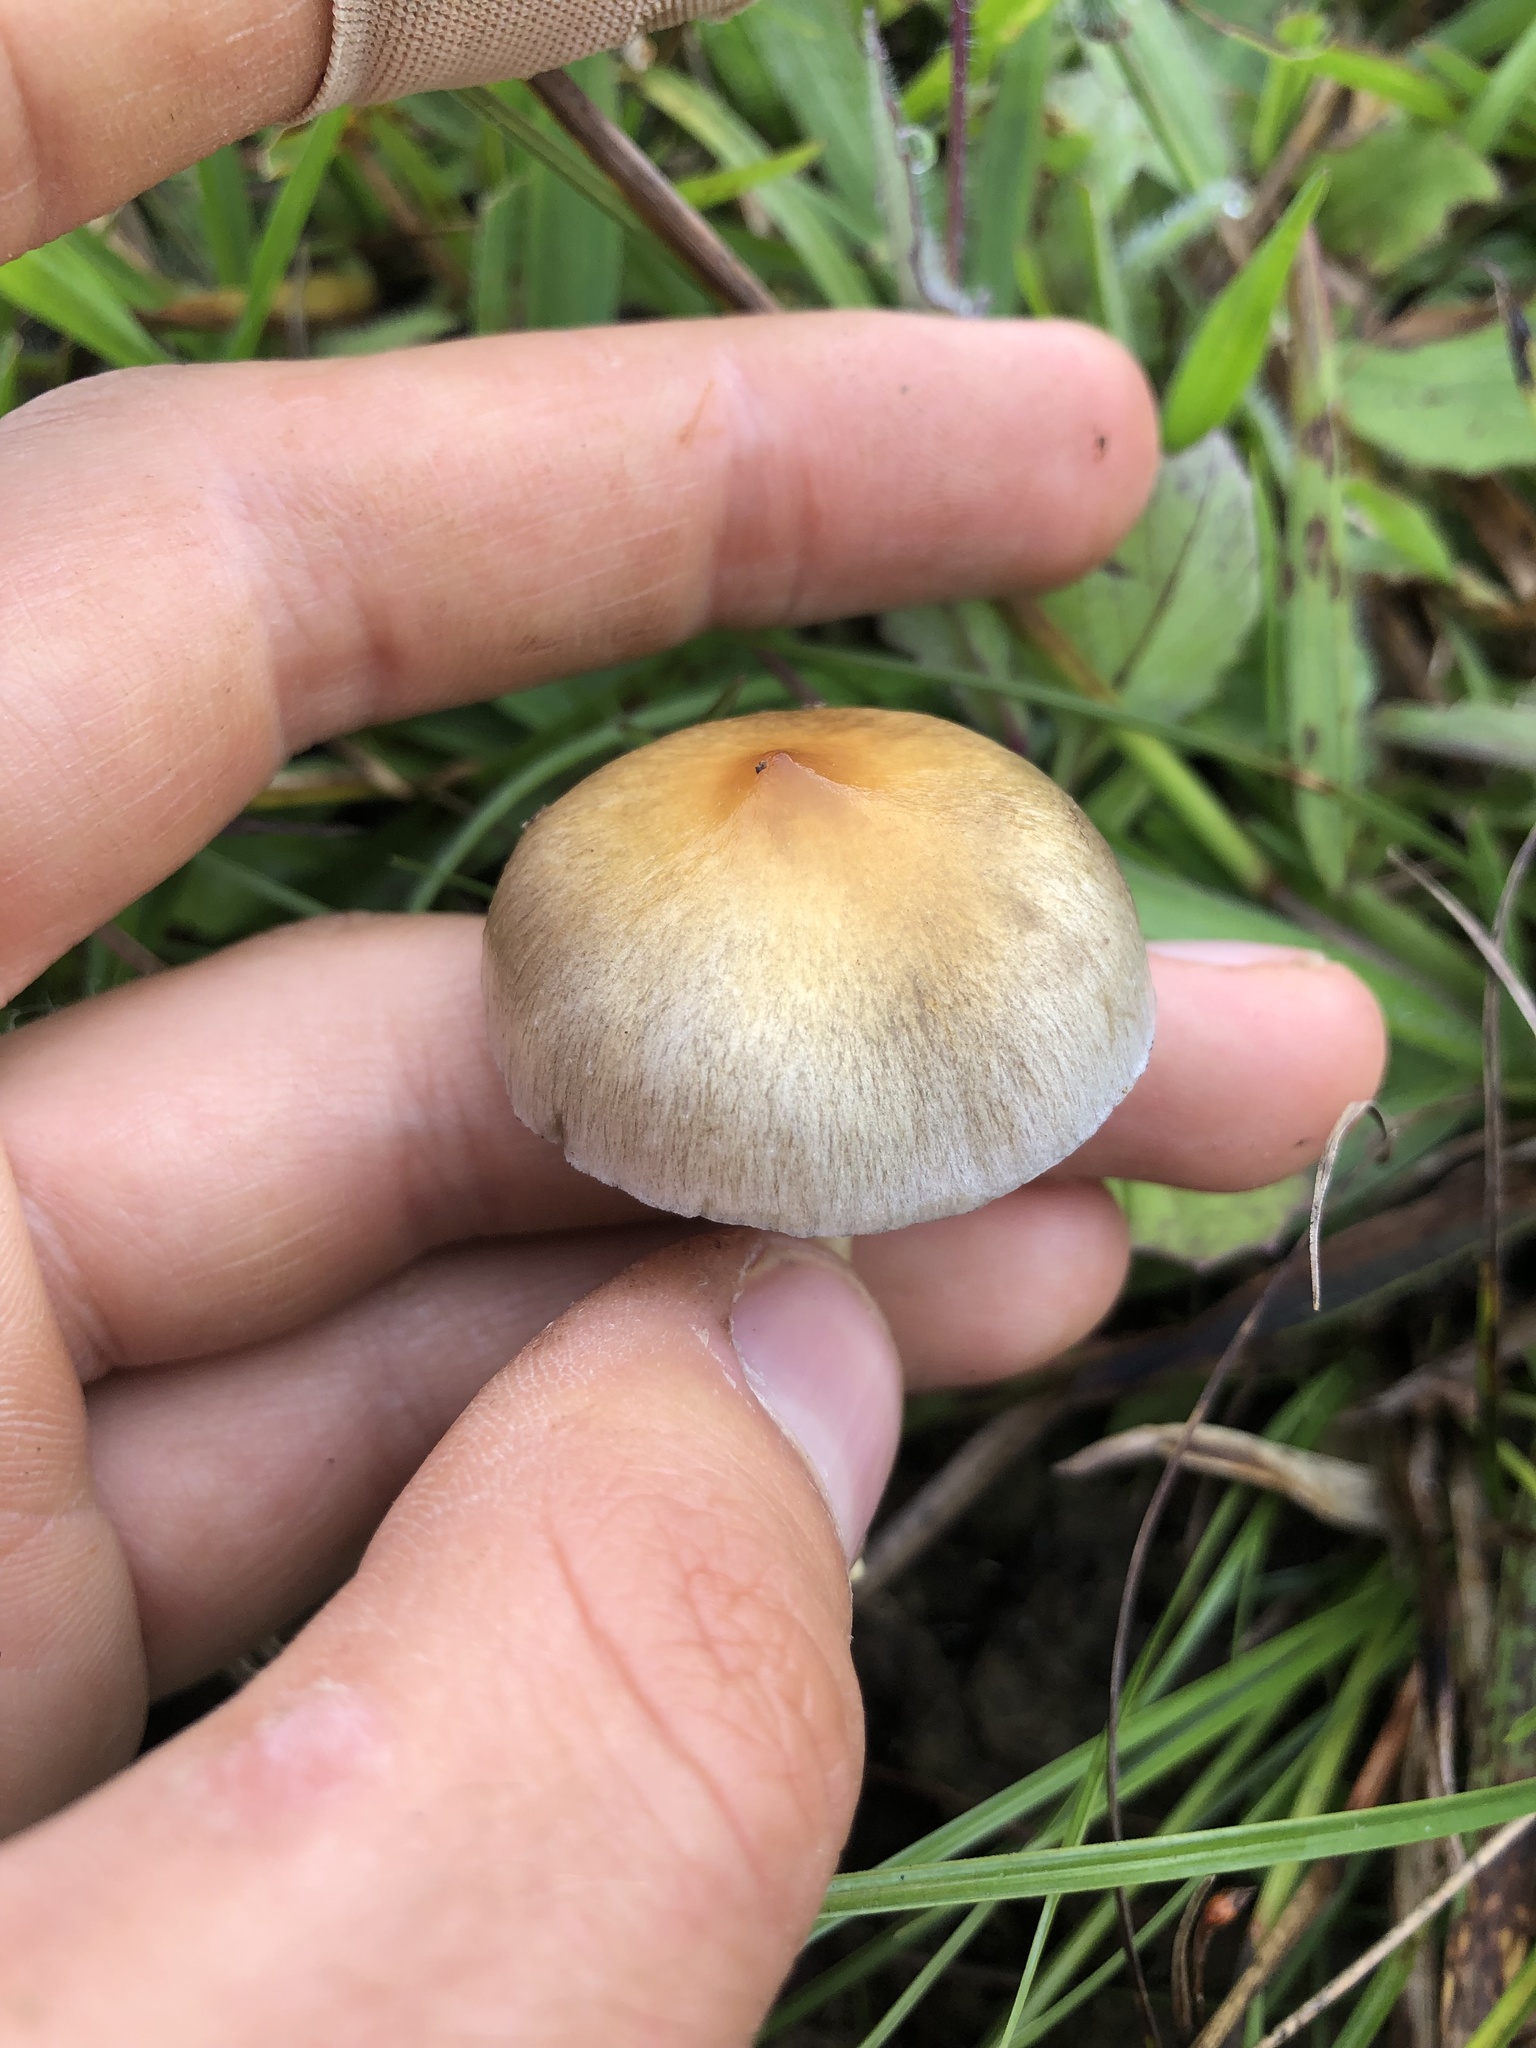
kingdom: Fungi
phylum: Basidiomycota
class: Agaricomycetes
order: Agaricales
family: Hymenogastraceae
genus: Psilocybe
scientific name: Psilocybe cubensis
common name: Golden brownie
